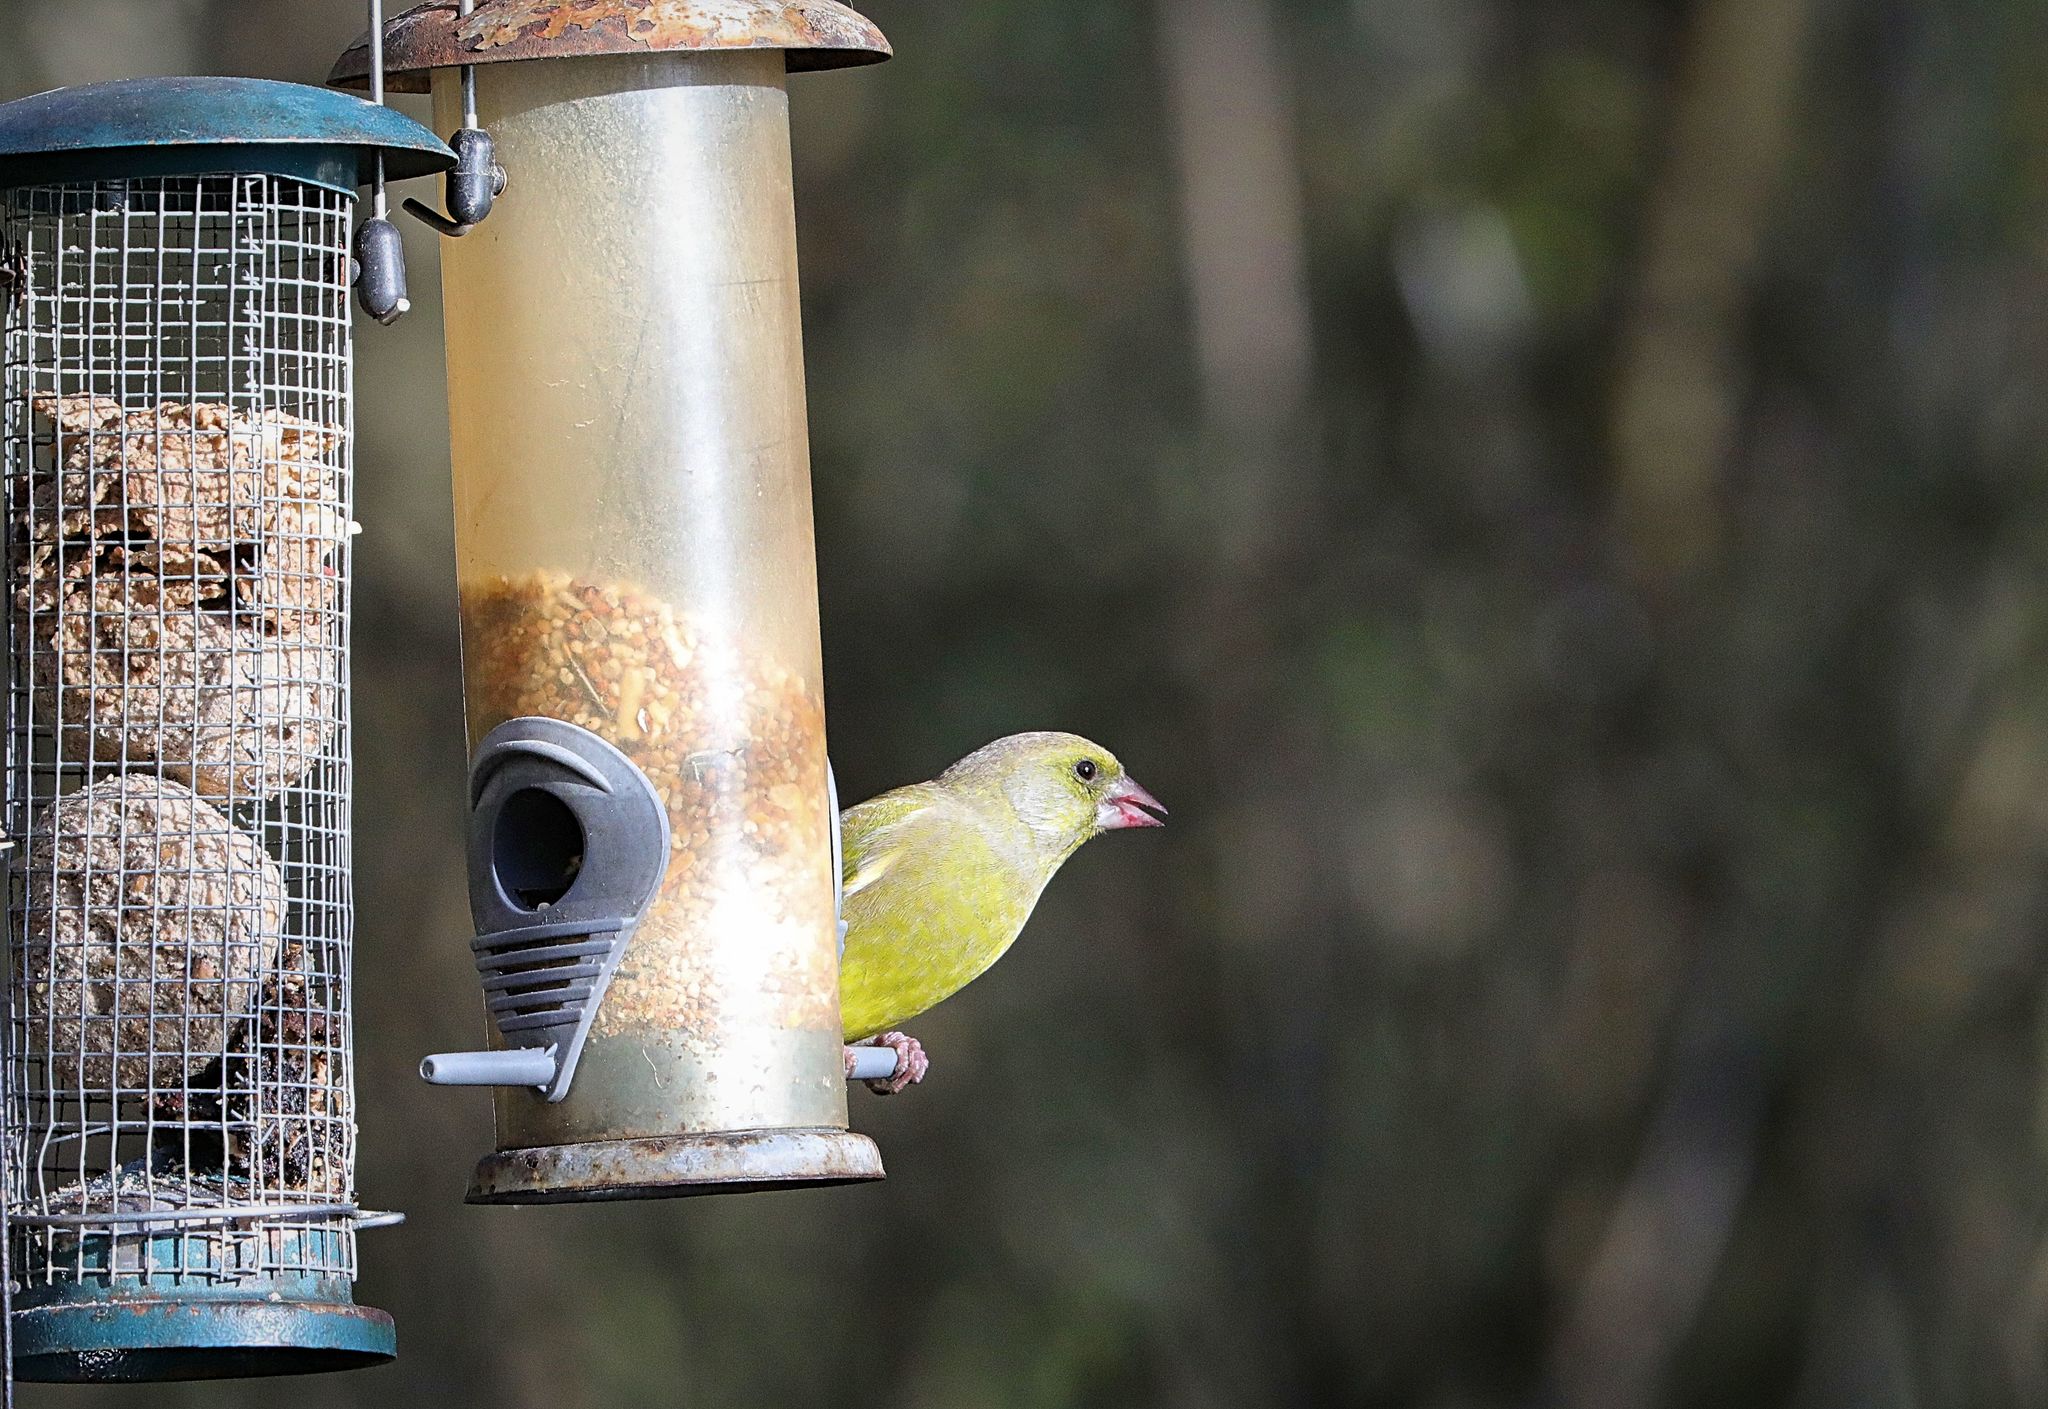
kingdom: Plantae
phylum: Tracheophyta
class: Liliopsida
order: Poales
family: Poaceae
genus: Chloris
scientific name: Chloris chloris
